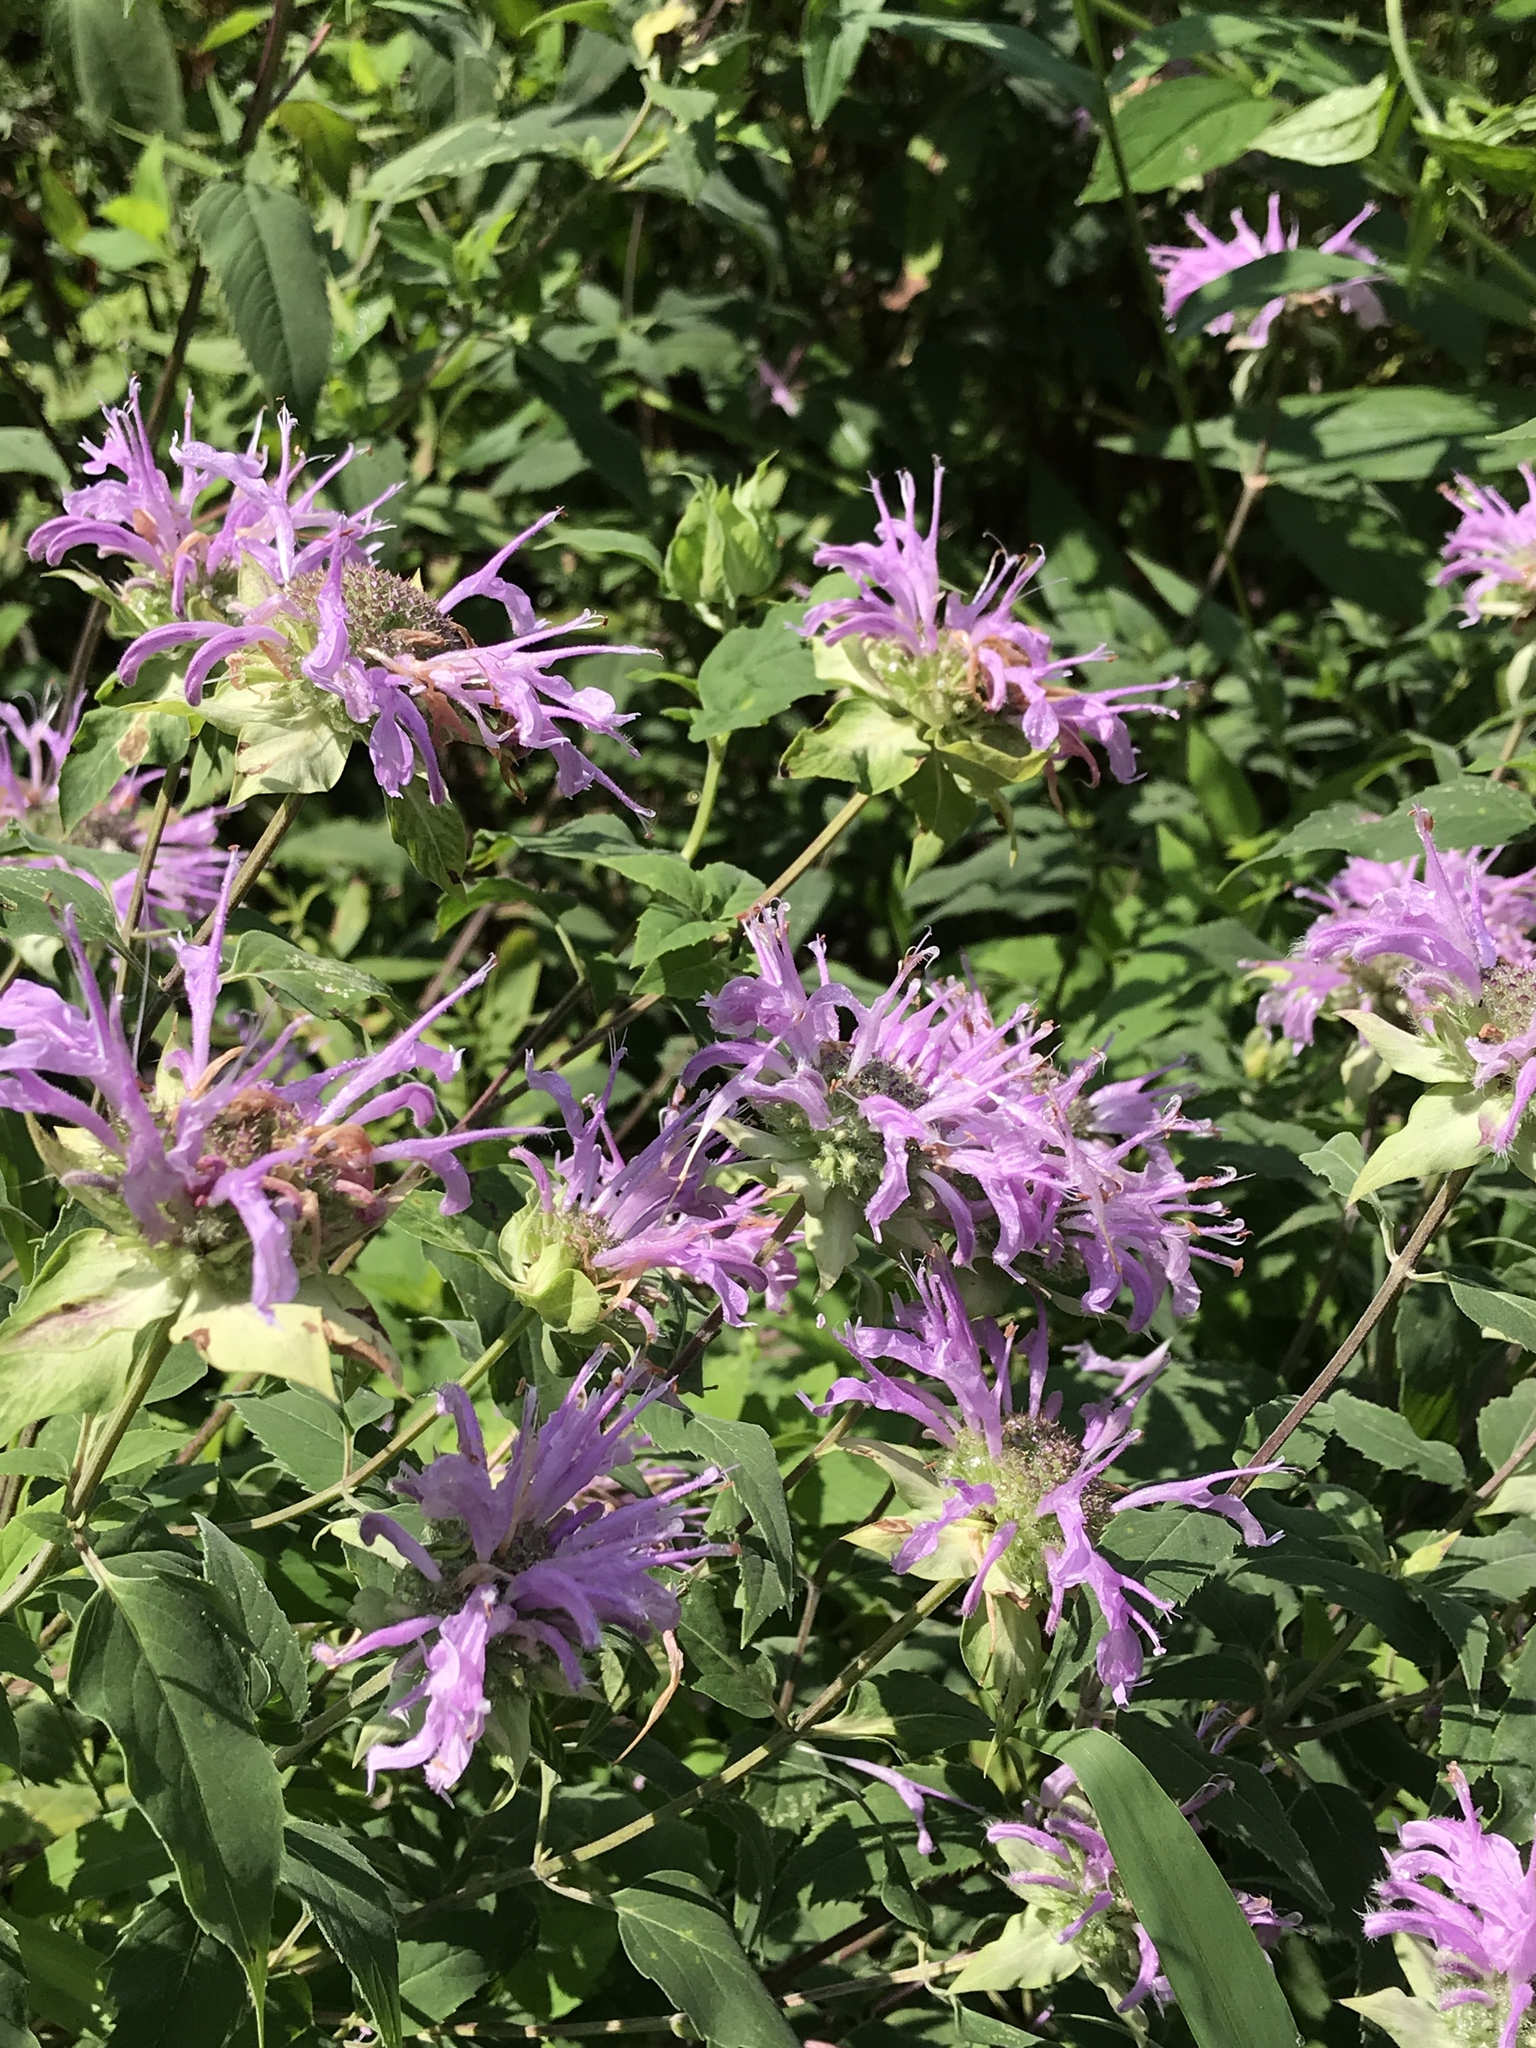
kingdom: Plantae
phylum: Tracheophyta
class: Magnoliopsida
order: Lamiales
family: Lamiaceae
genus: Monarda
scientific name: Monarda fistulosa
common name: Purple beebalm
